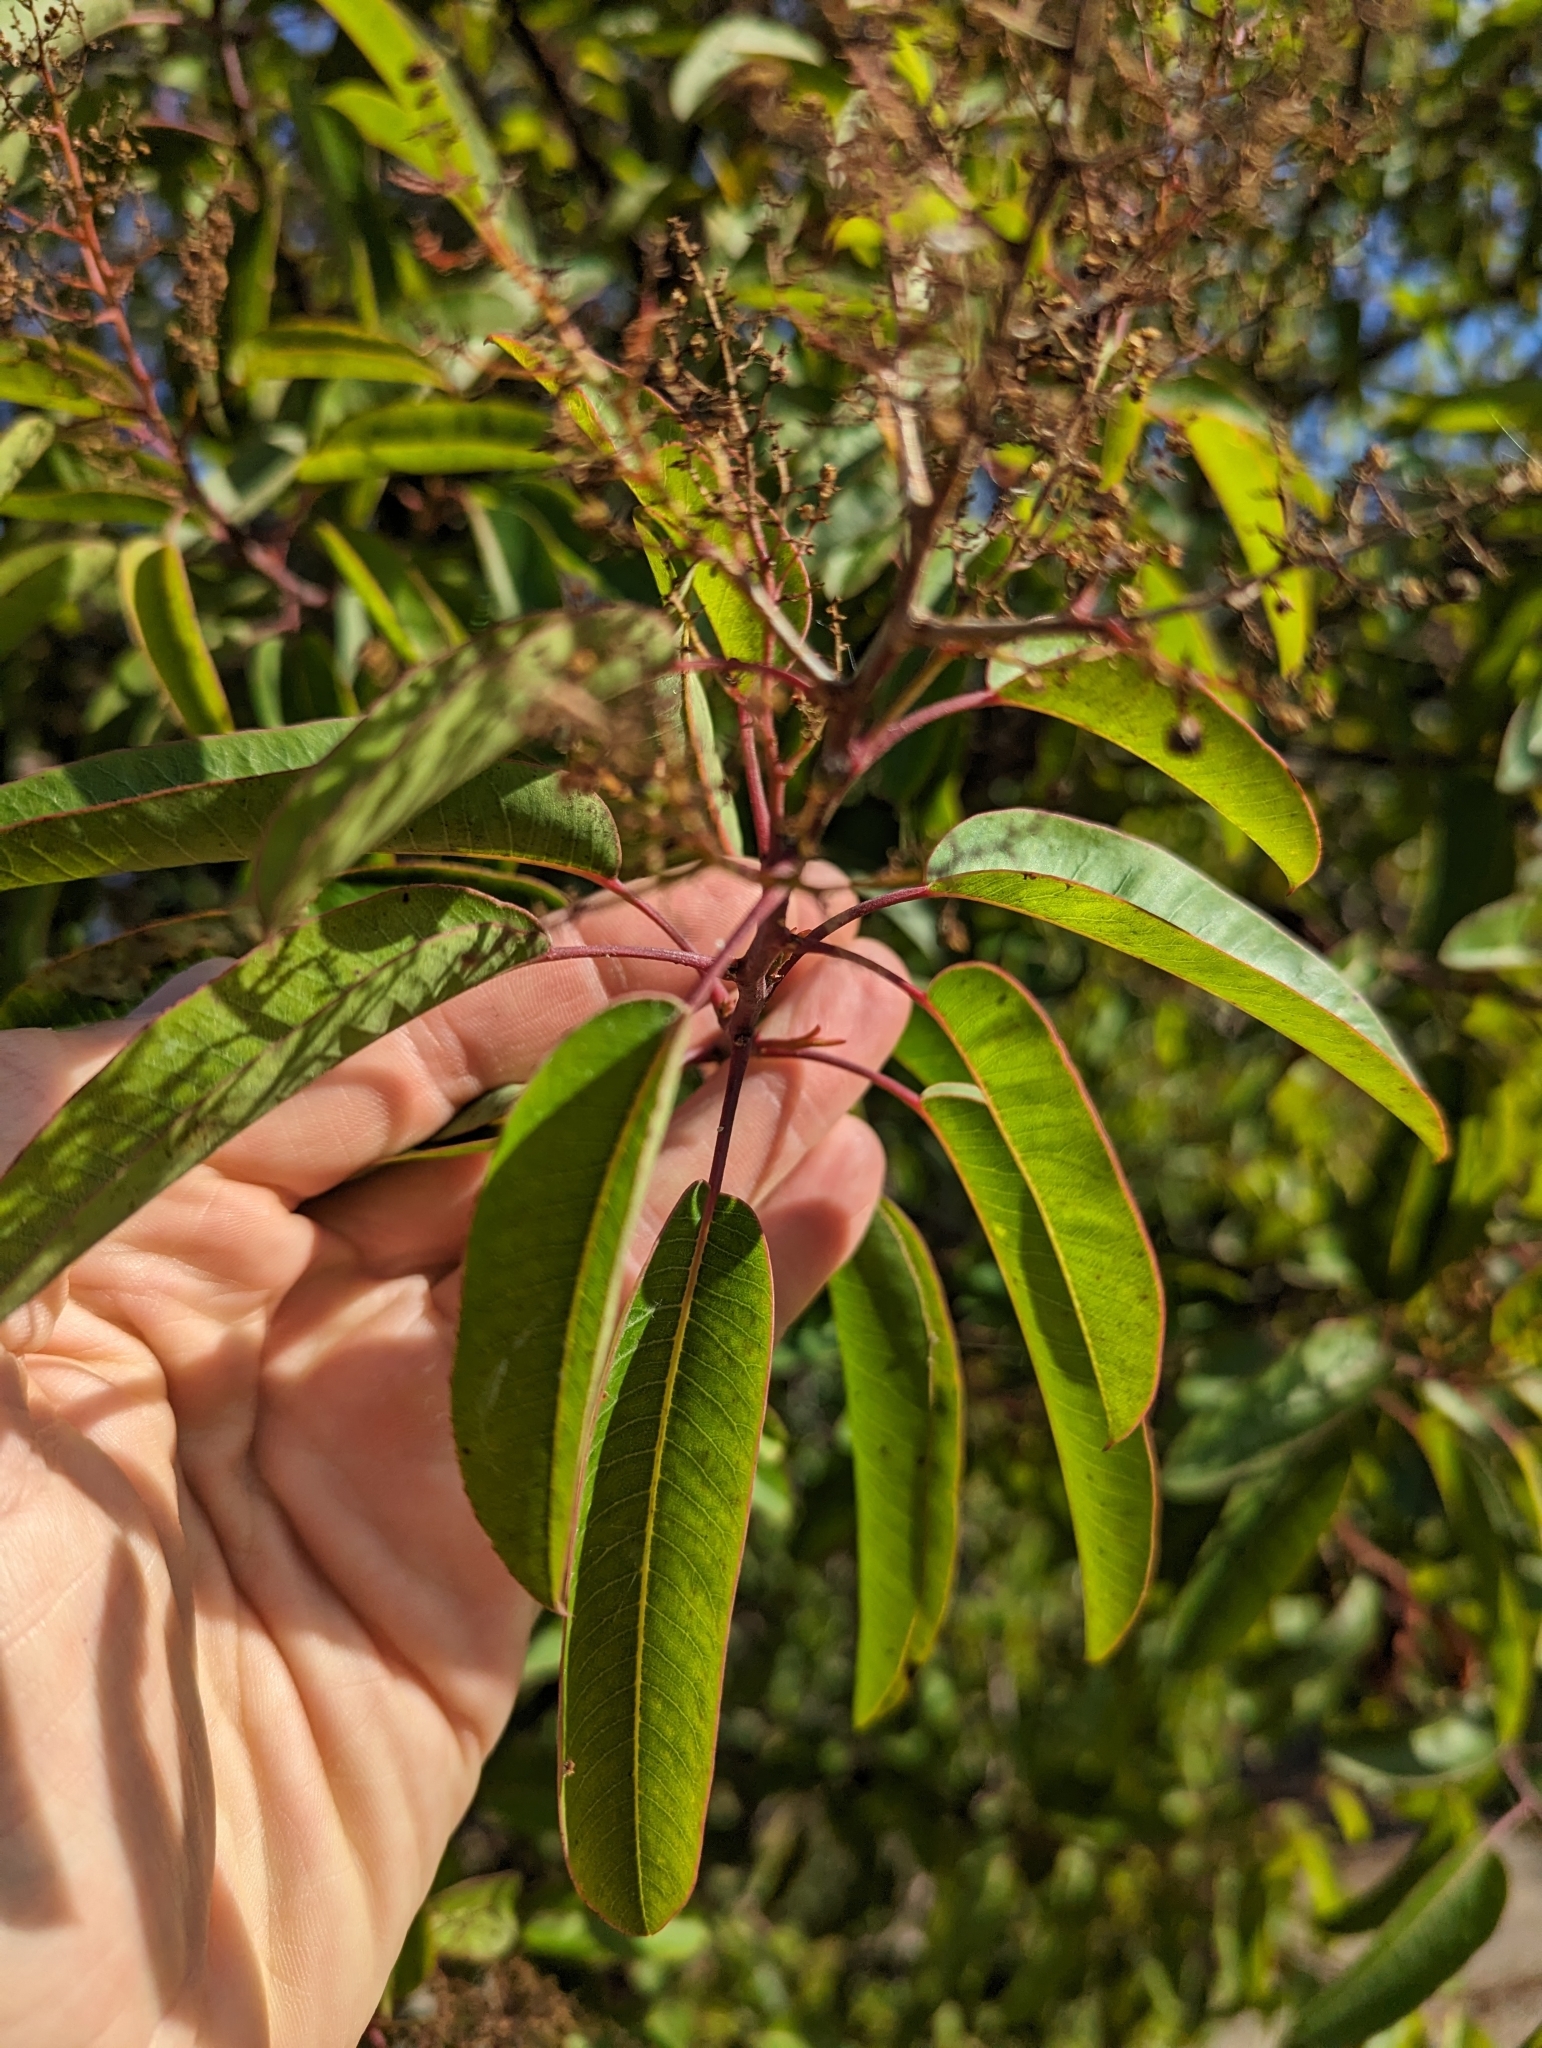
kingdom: Plantae
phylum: Tracheophyta
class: Magnoliopsida
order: Sapindales
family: Anacardiaceae
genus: Malosma
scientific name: Malosma laurina
